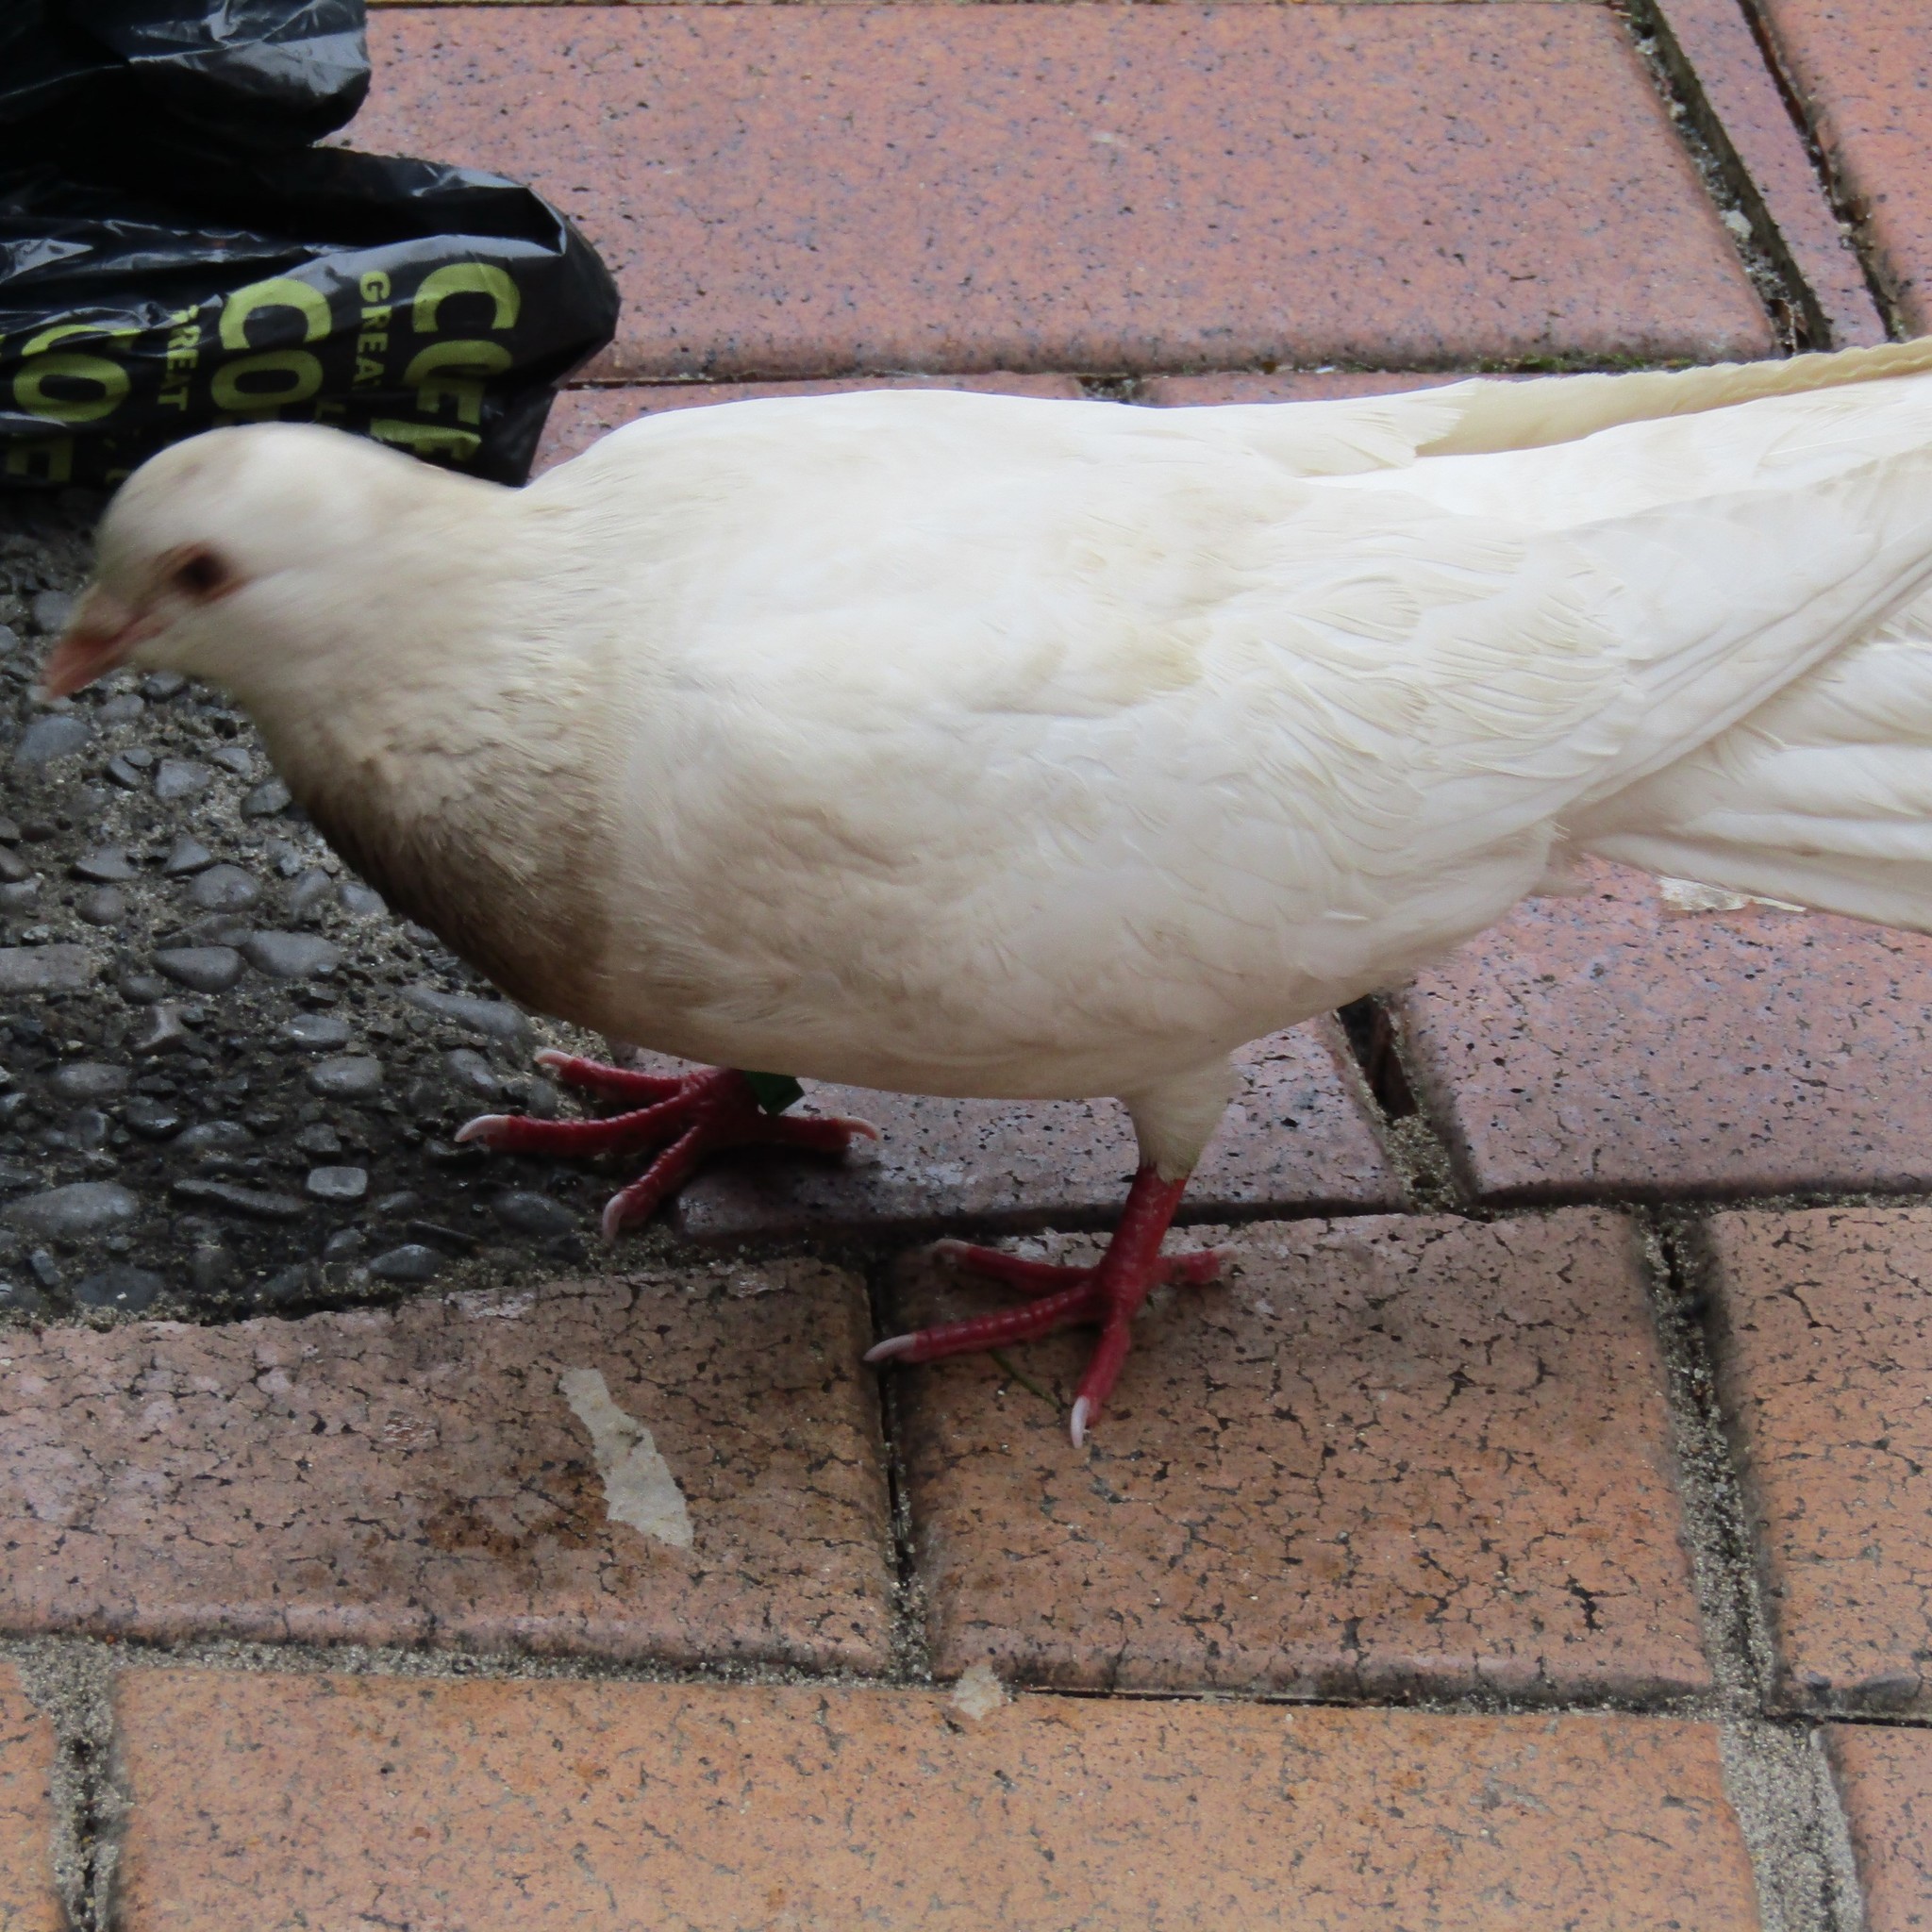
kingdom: Animalia
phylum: Chordata
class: Aves
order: Columbiformes
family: Columbidae
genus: Columba
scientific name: Columba livia
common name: Rock pigeon
